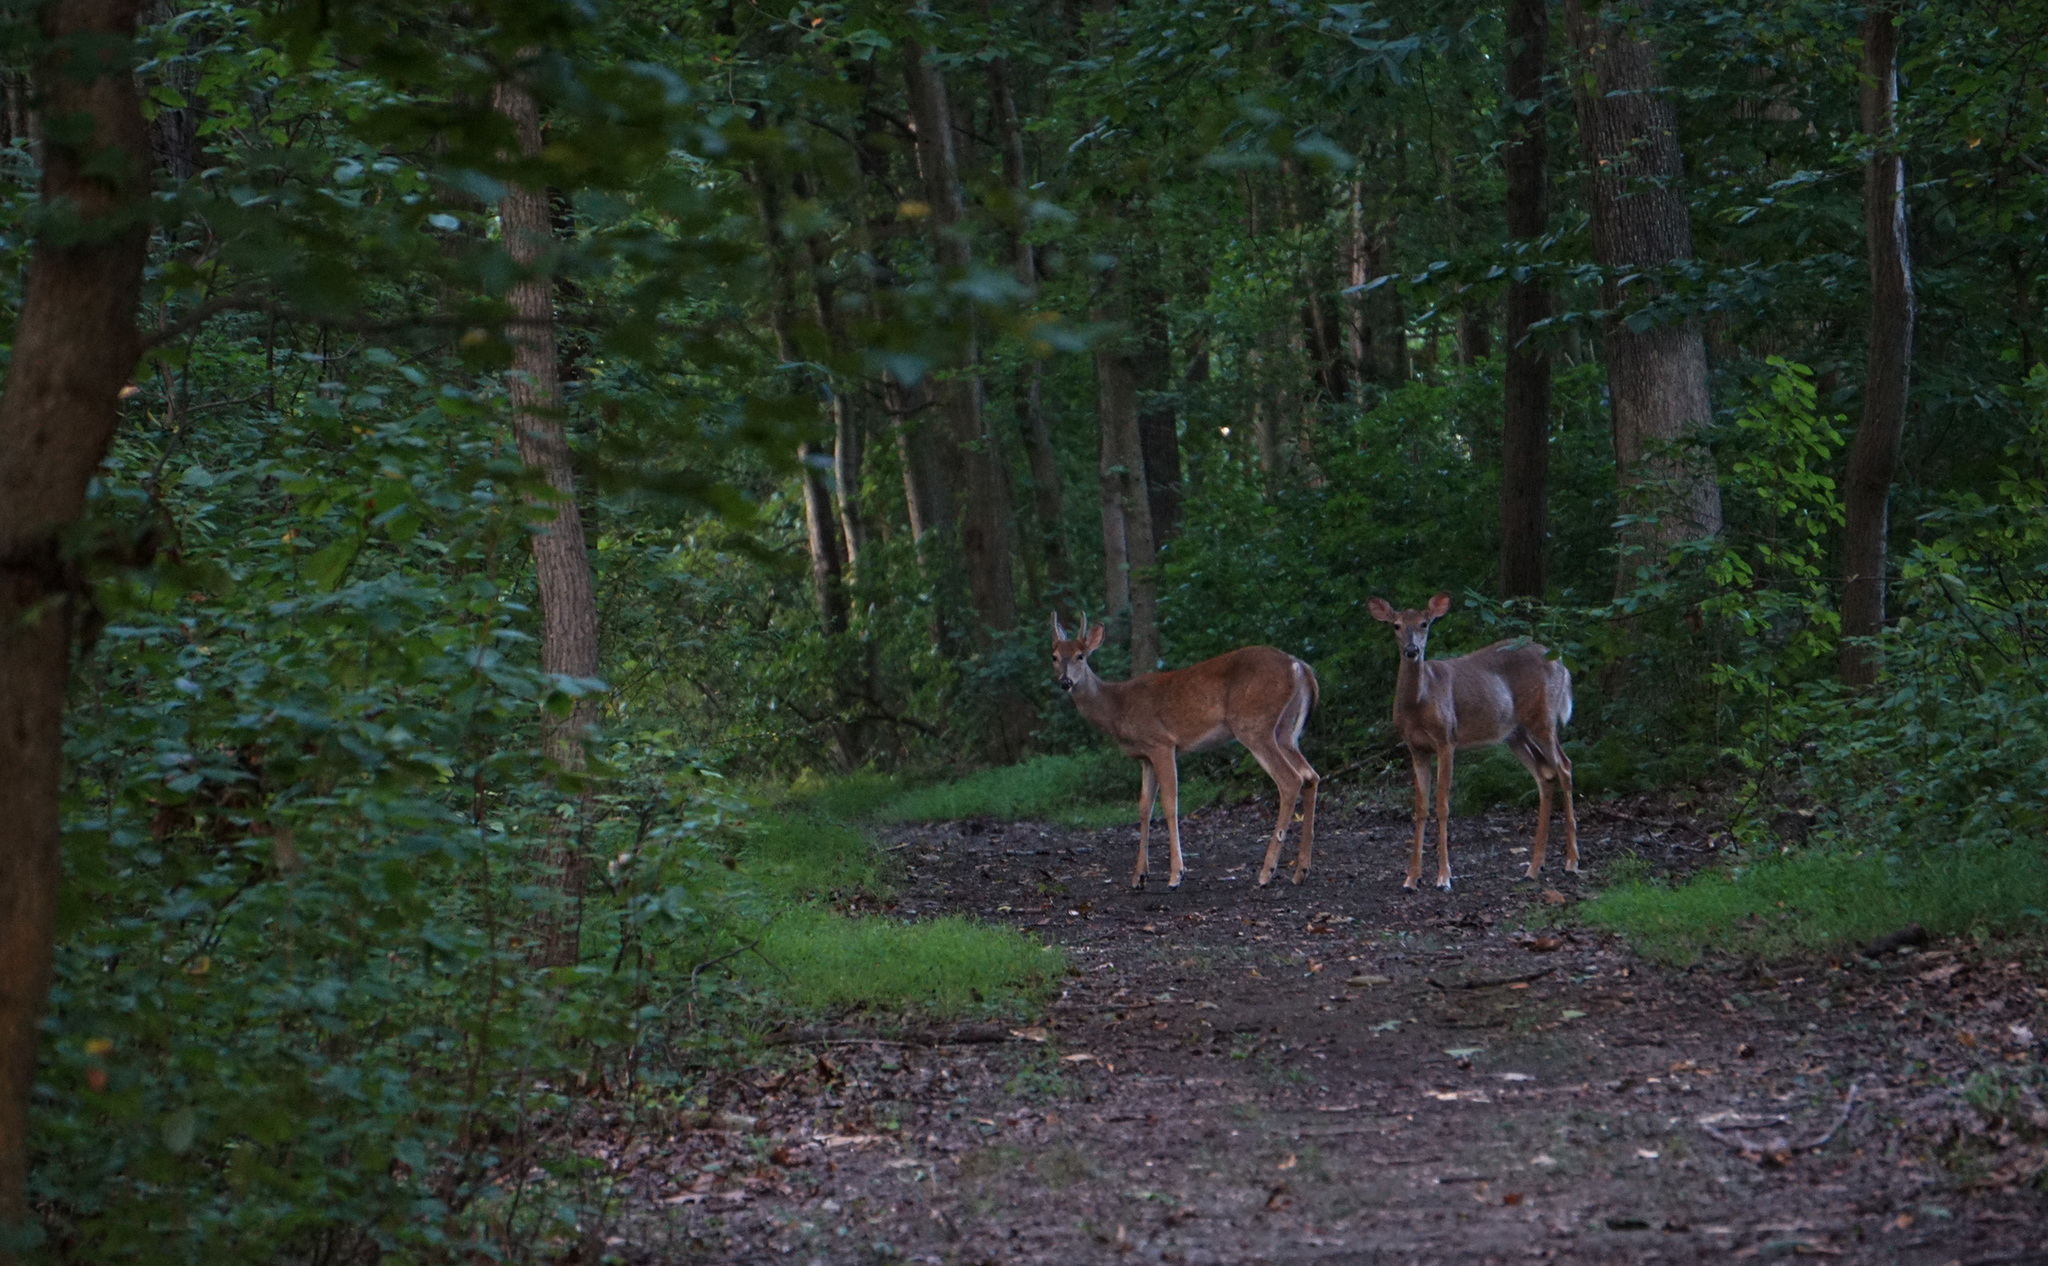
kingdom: Animalia
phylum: Chordata
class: Mammalia
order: Artiodactyla
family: Cervidae
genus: Odocoileus
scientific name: Odocoileus virginianus
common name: White-tailed deer
